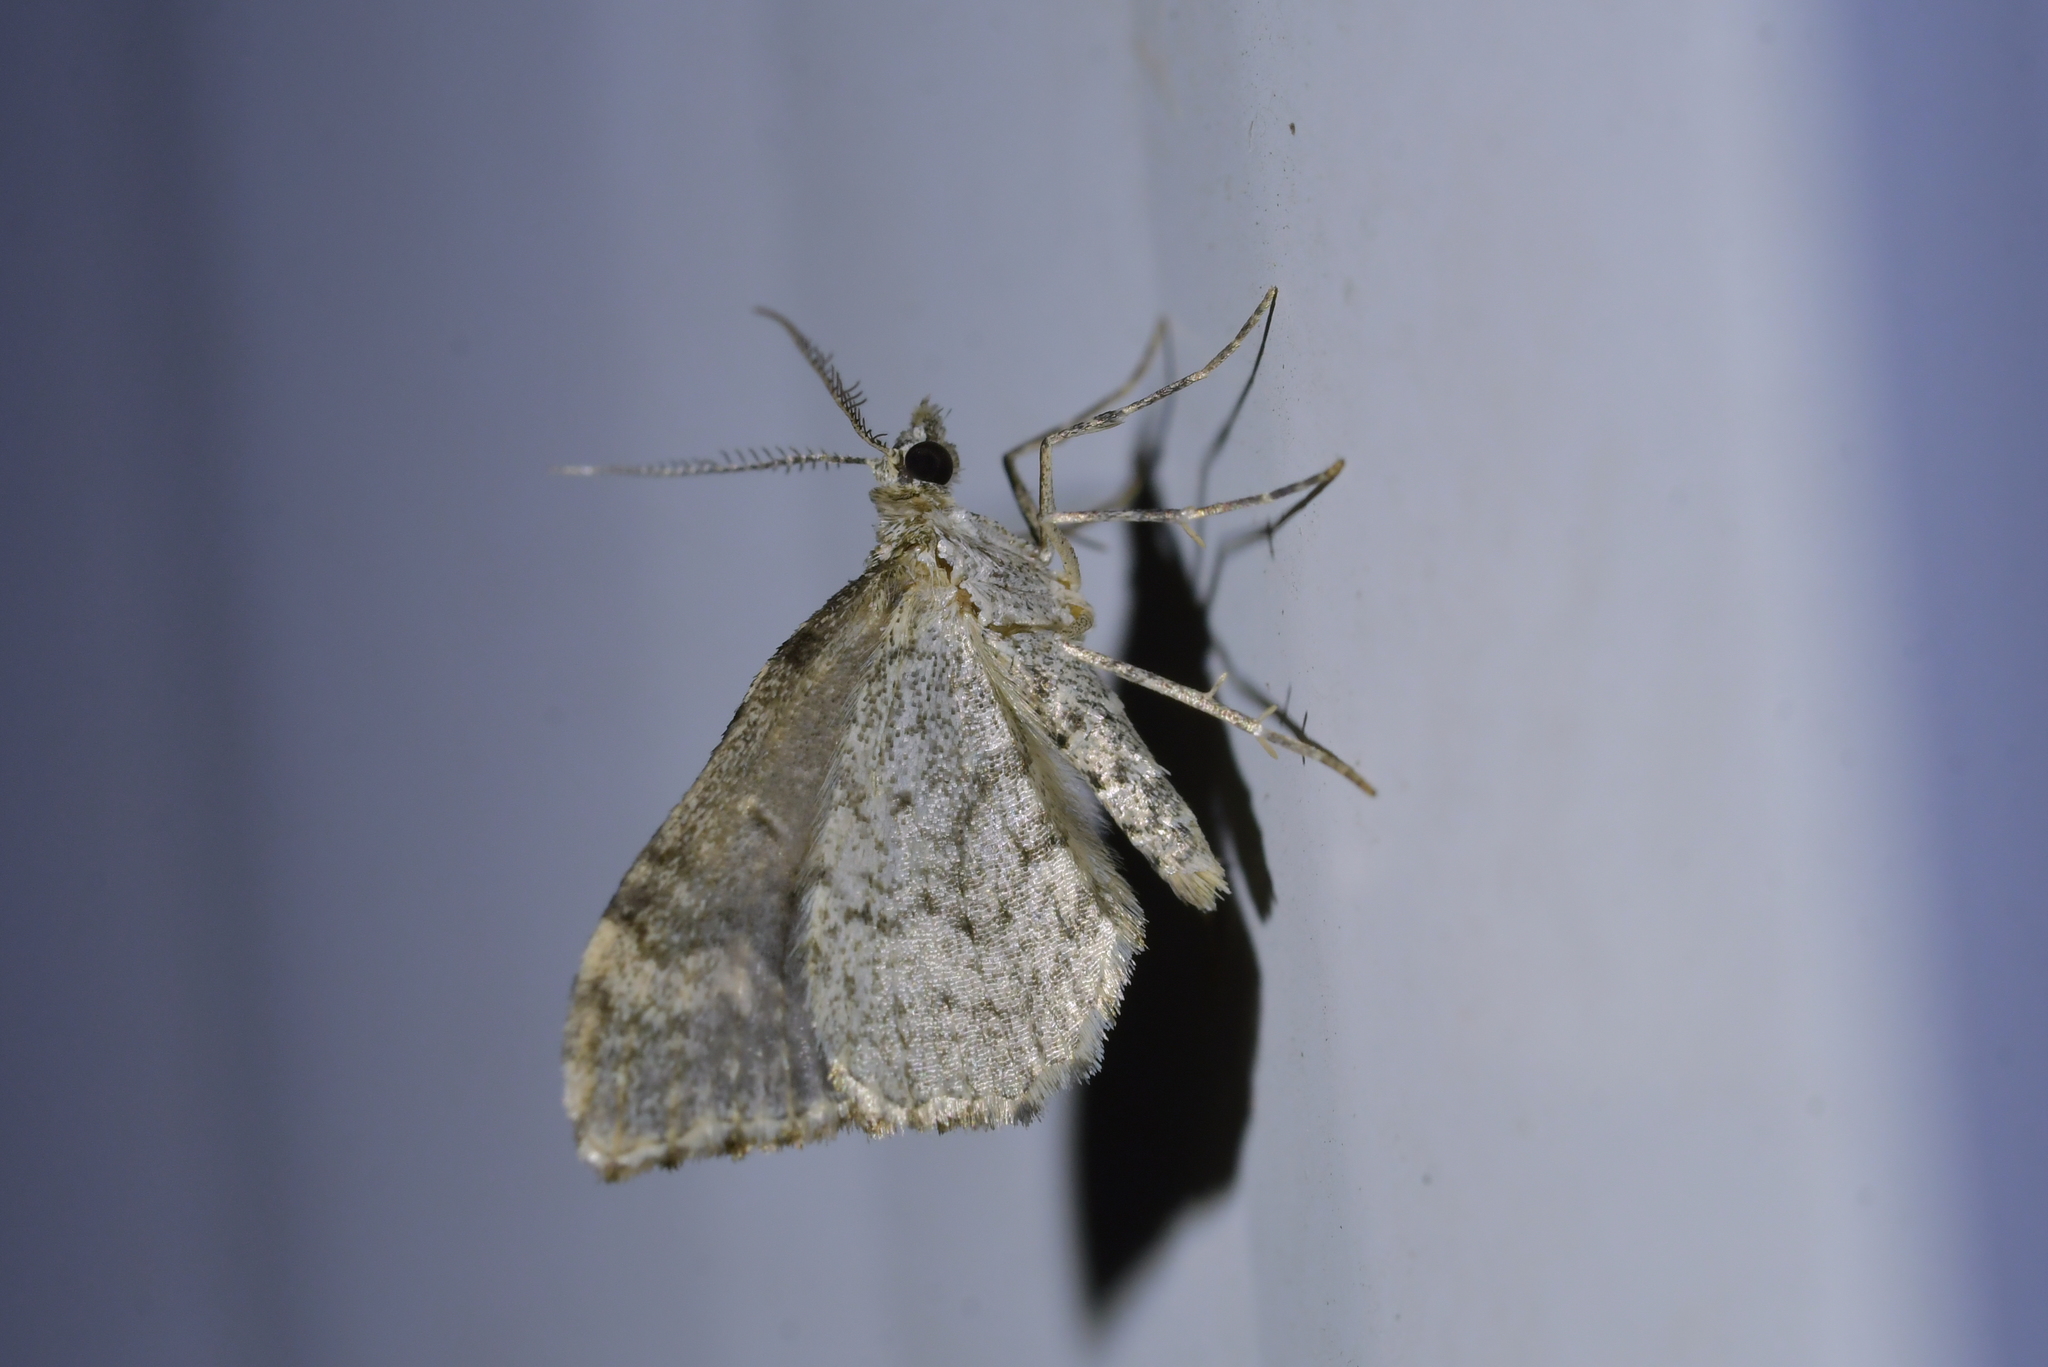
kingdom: Animalia
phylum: Arthropoda
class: Insecta
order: Lepidoptera
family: Geometridae
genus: Helastia
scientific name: Helastia cinerearia
